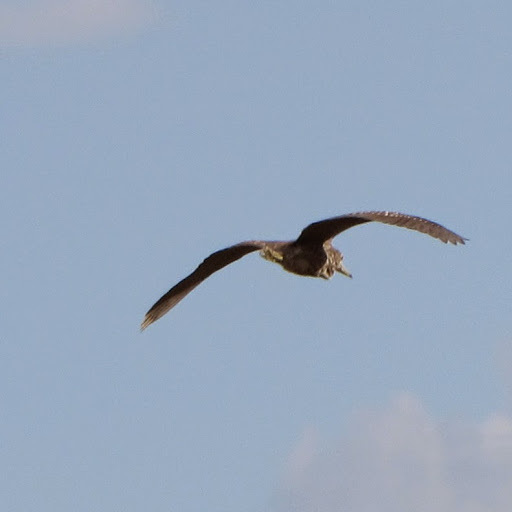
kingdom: Animalia
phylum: Chordata
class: Aves
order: Pelecaniformes
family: Ardeidae
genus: Nycticorax
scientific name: Nycticorax nycticorax
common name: Black-crowned night heron
